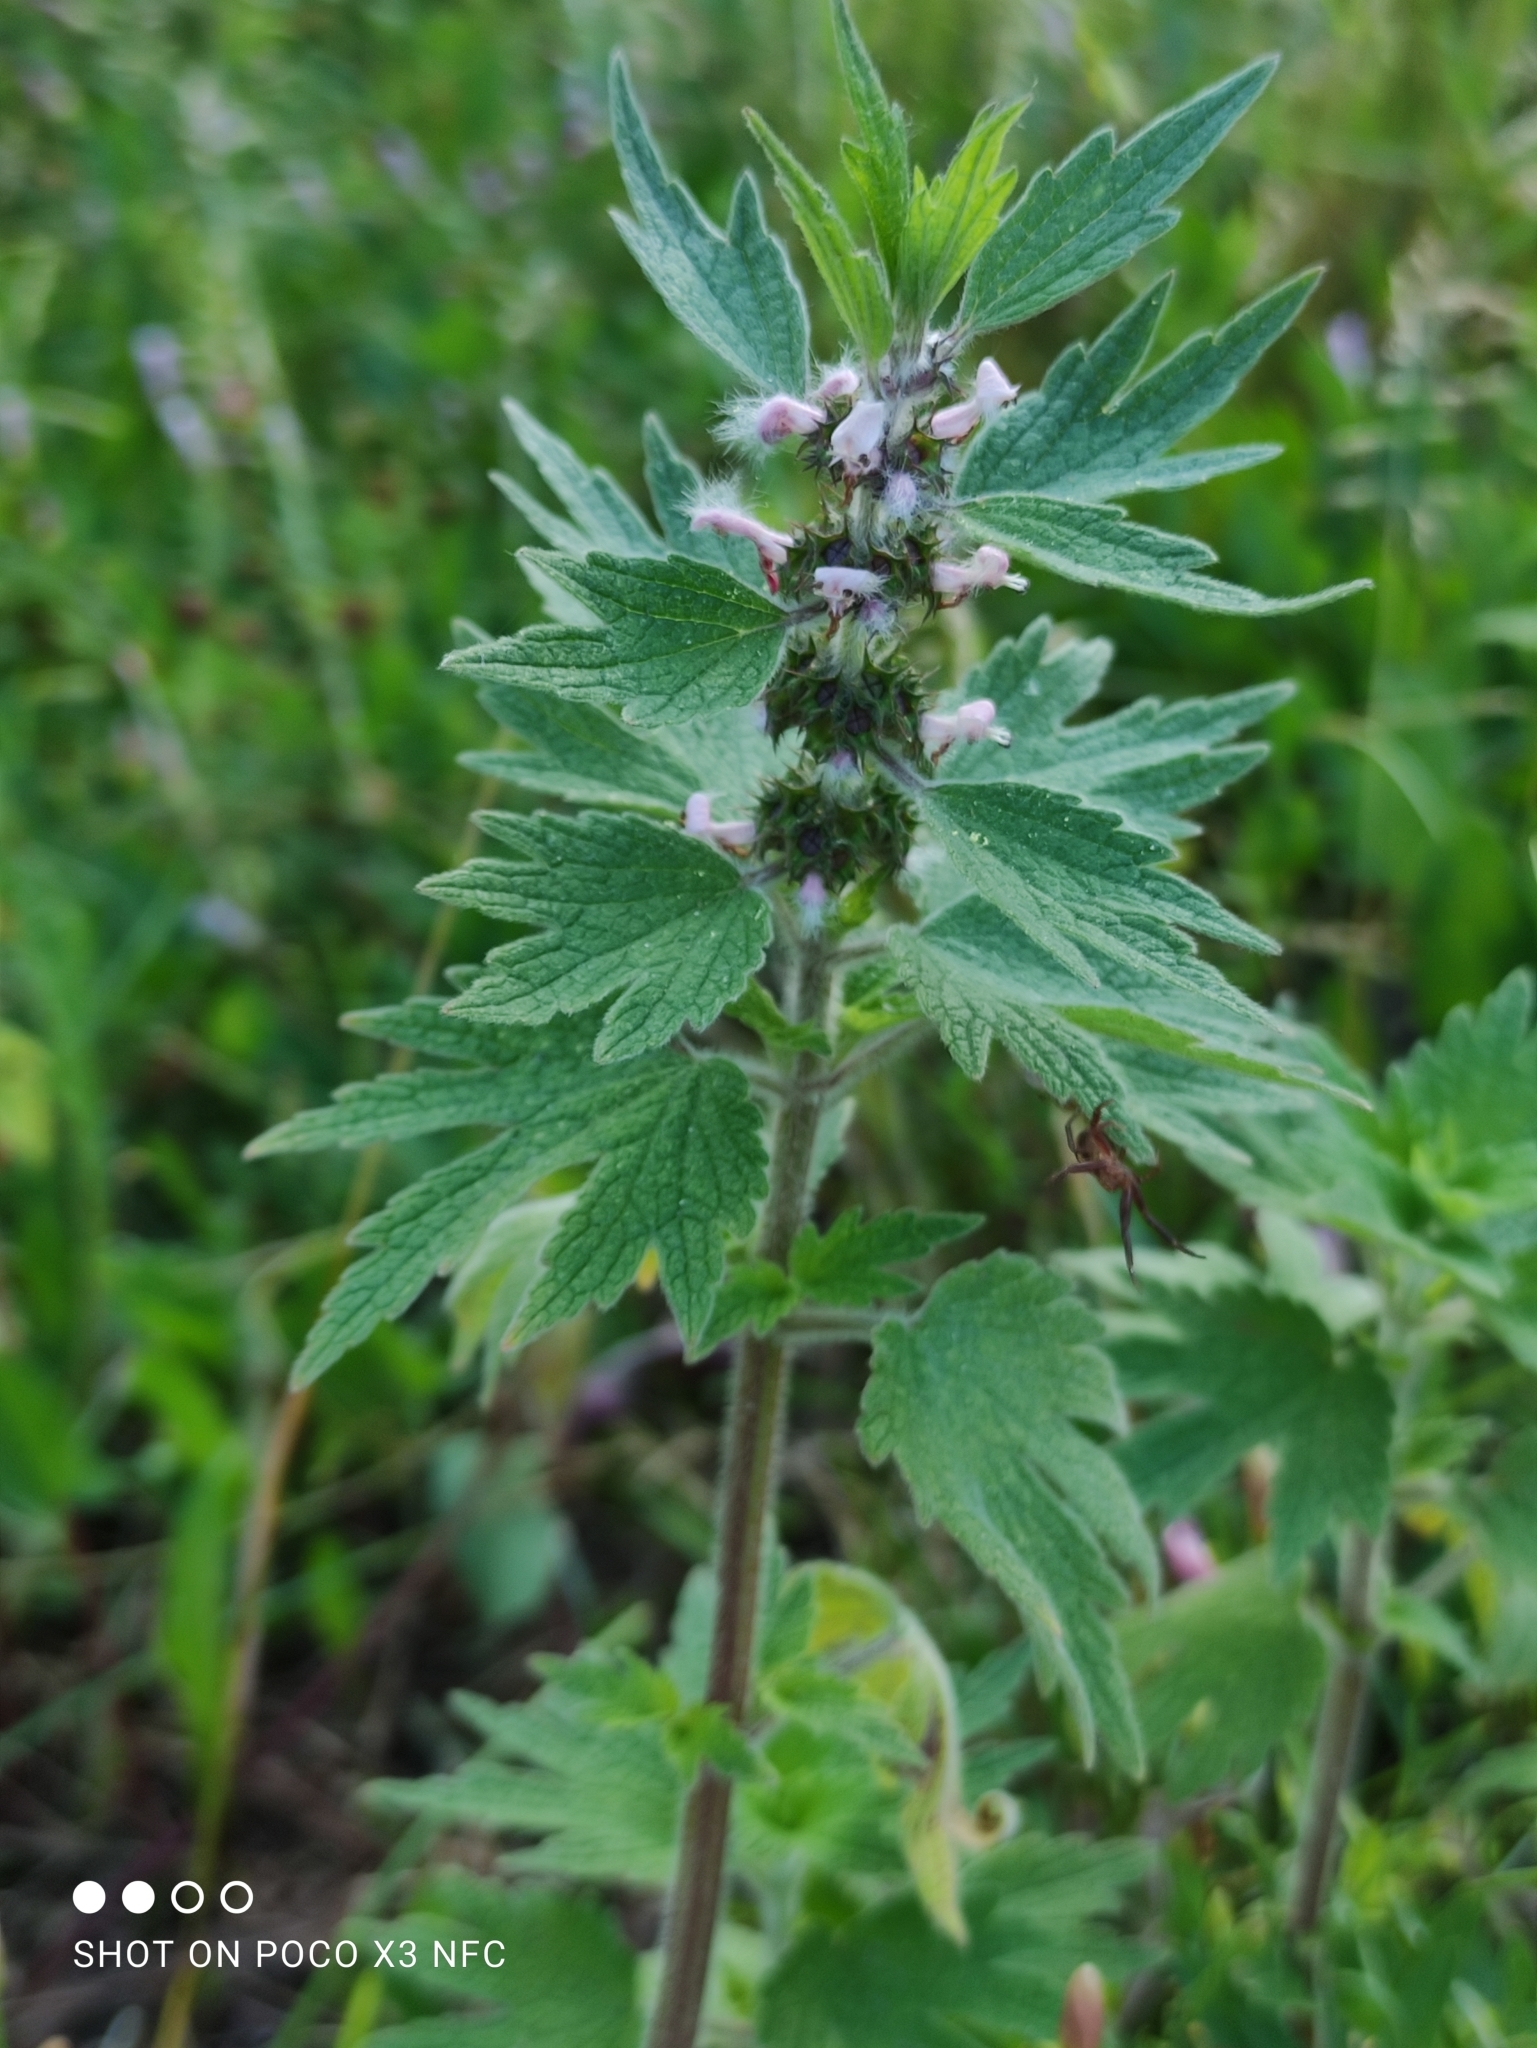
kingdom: Plantae
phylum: Tracheophyta
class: Magnoliopsida
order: Lamiales
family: Lamiaceae
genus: Leonurus
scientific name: Leonurus quinquelobatus
